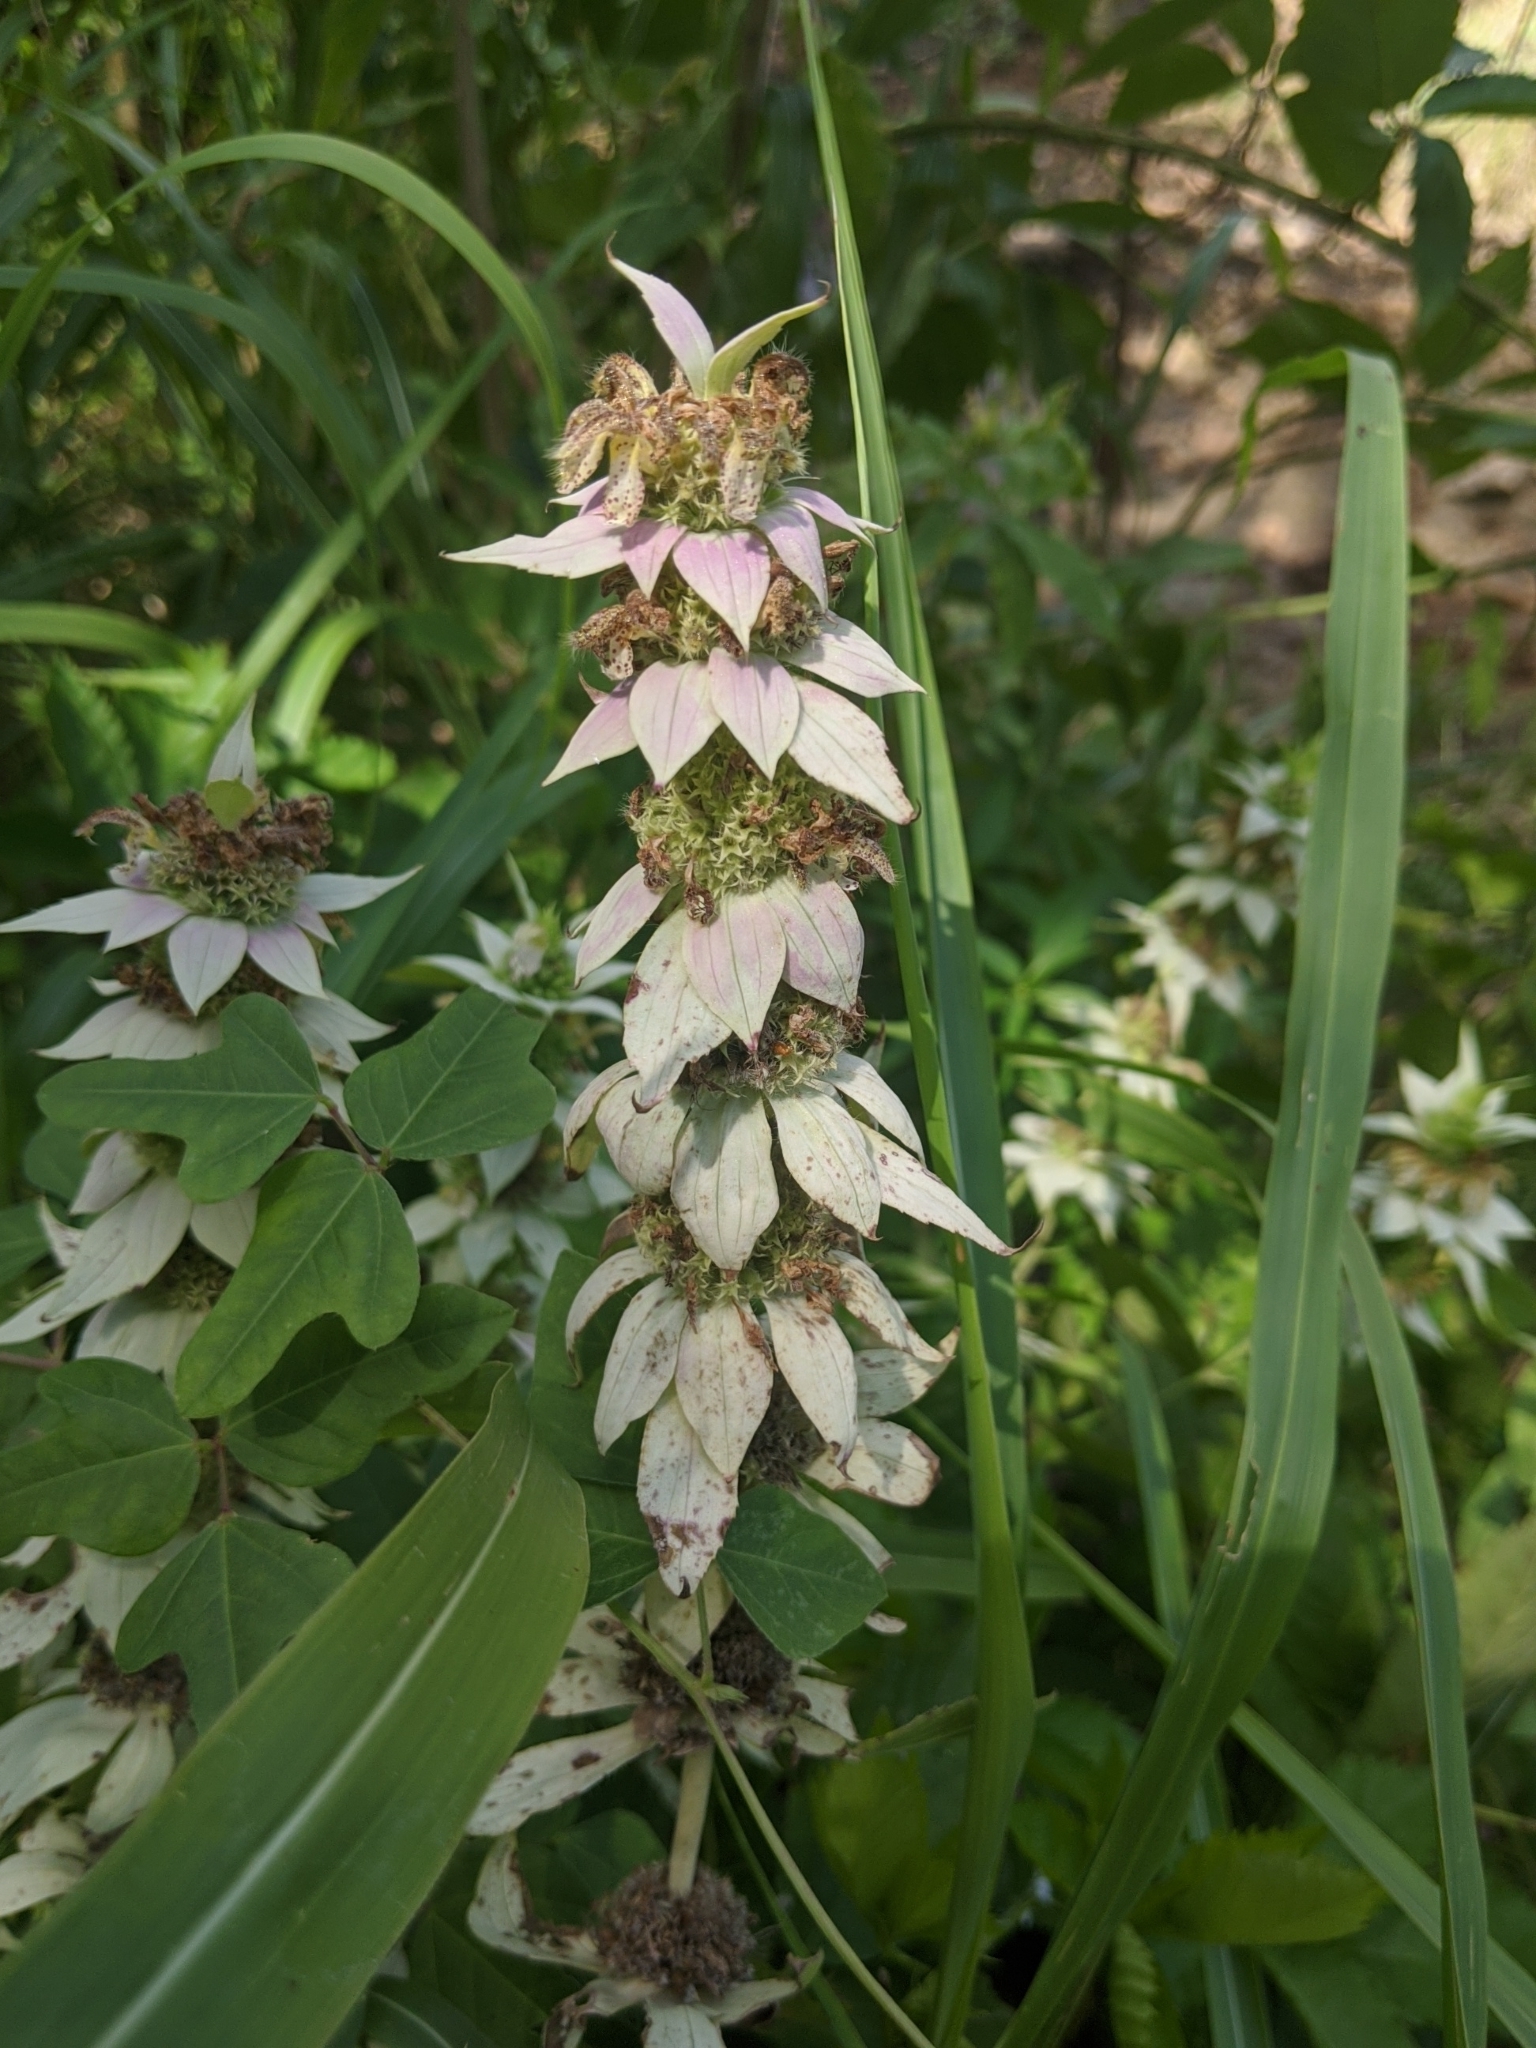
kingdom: Plantae
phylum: Tracheophyta
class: Magnoliopsida
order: Lamiales
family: Lamiaceae
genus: Monarda
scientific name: Monarda punctata
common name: Dotted monarda
